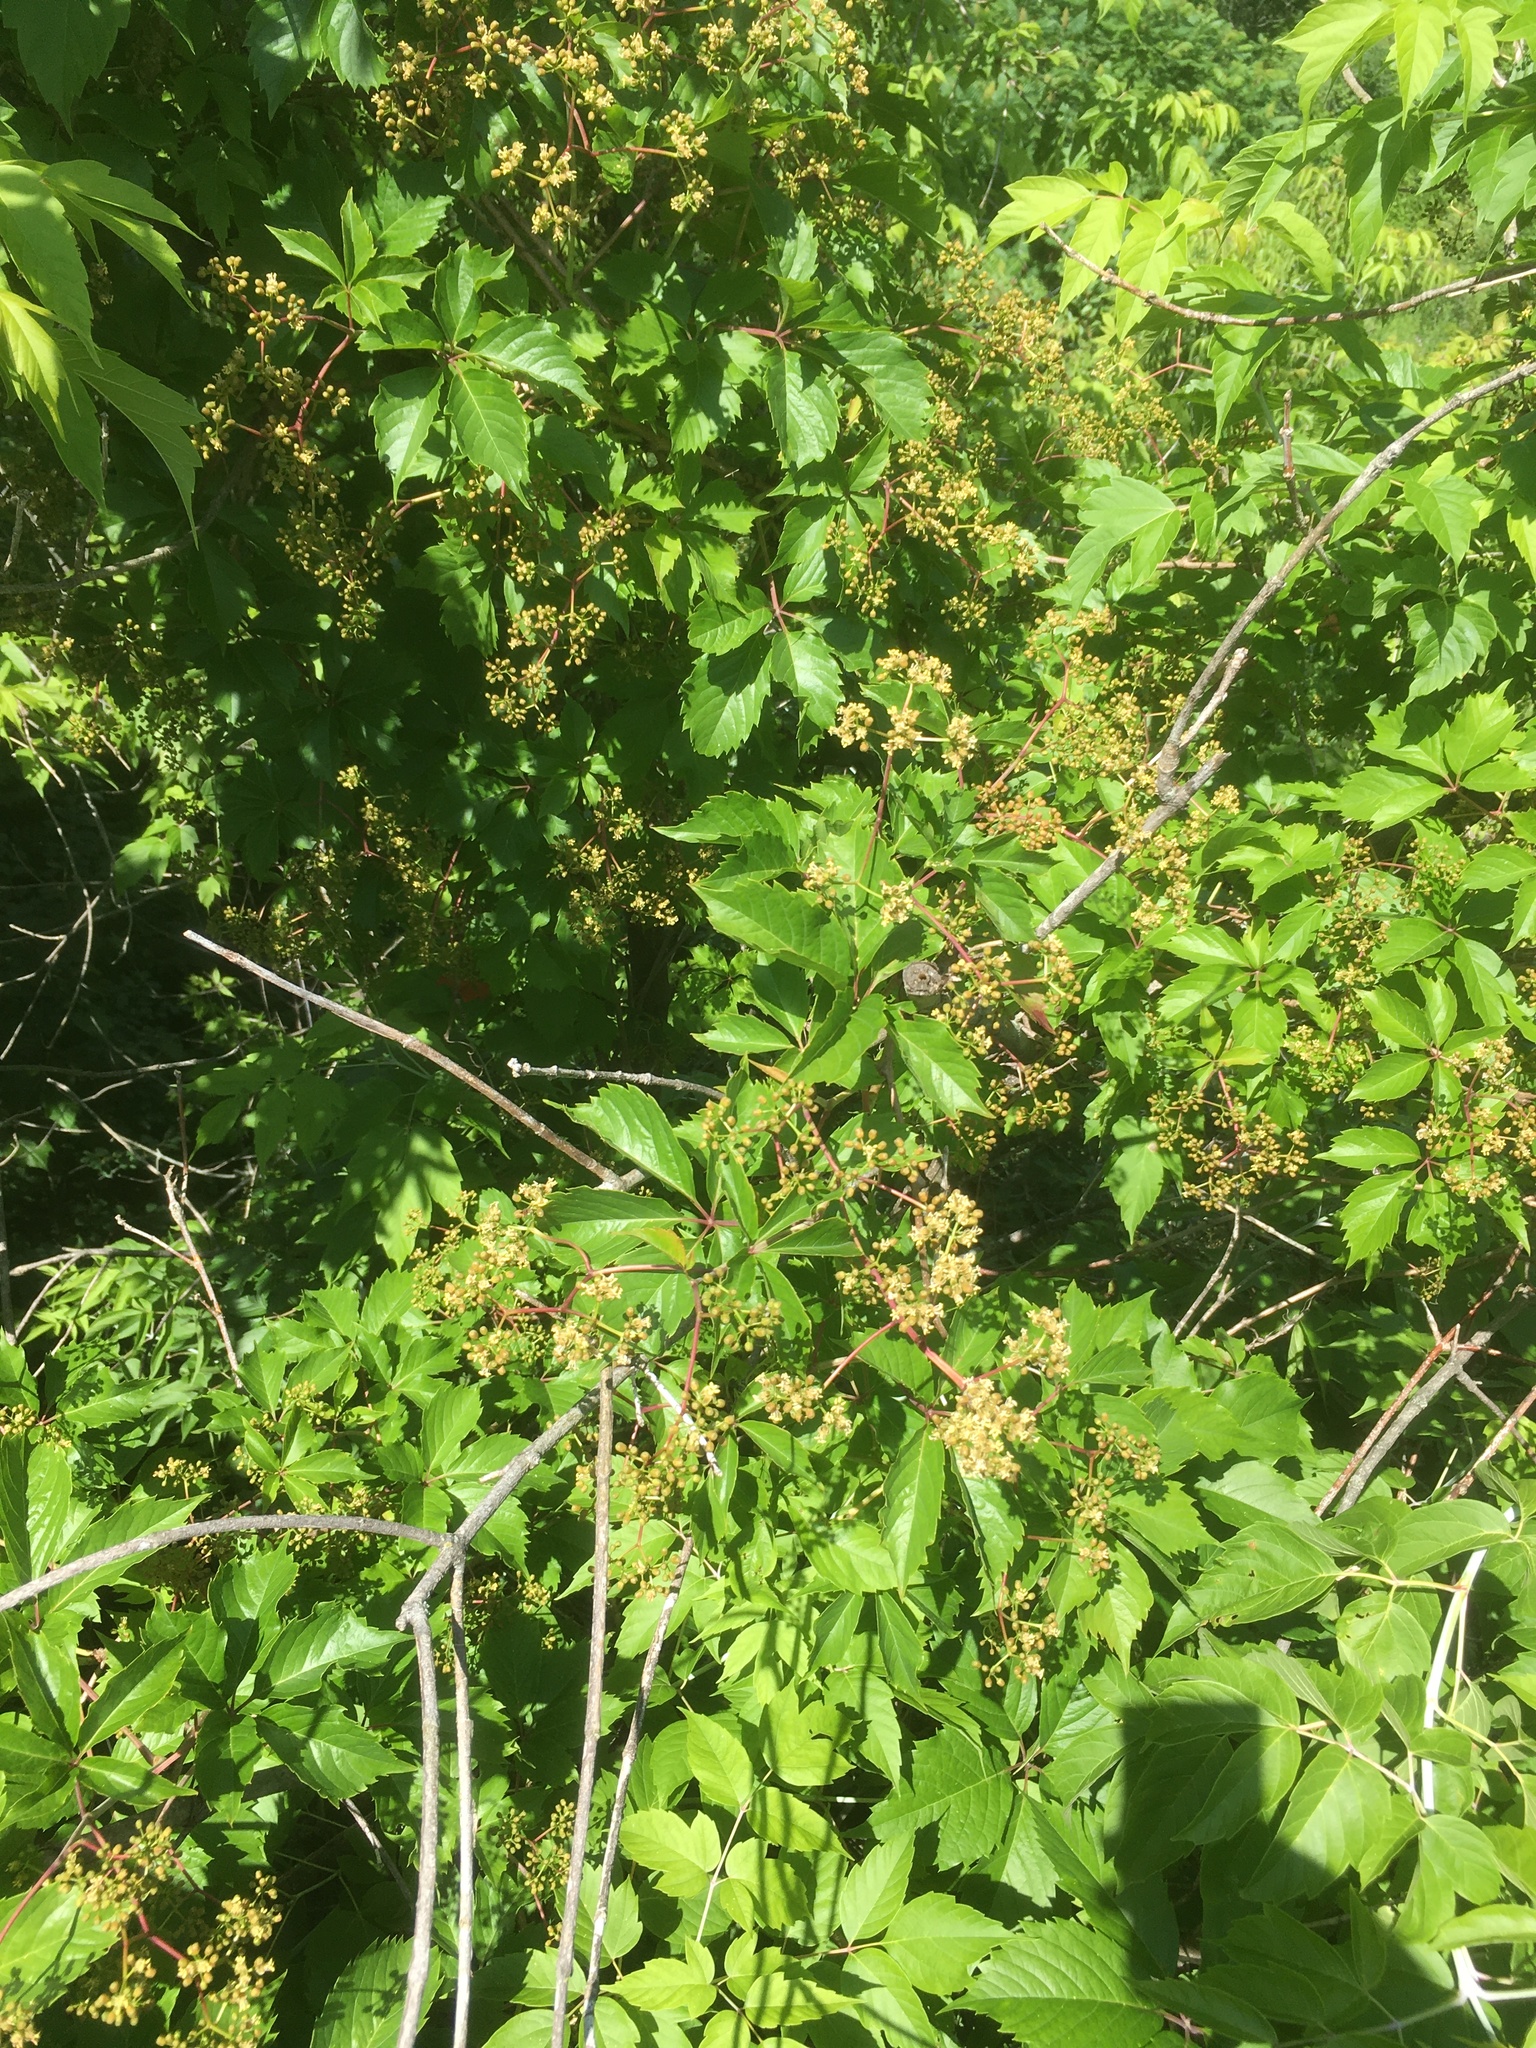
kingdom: Plantae
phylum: Tracheophyta
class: Magnoliopsida
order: Vitales
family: Vitaceae
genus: Parthenocissus
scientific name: Parthenocissus inserta
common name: False virginia-creeper
